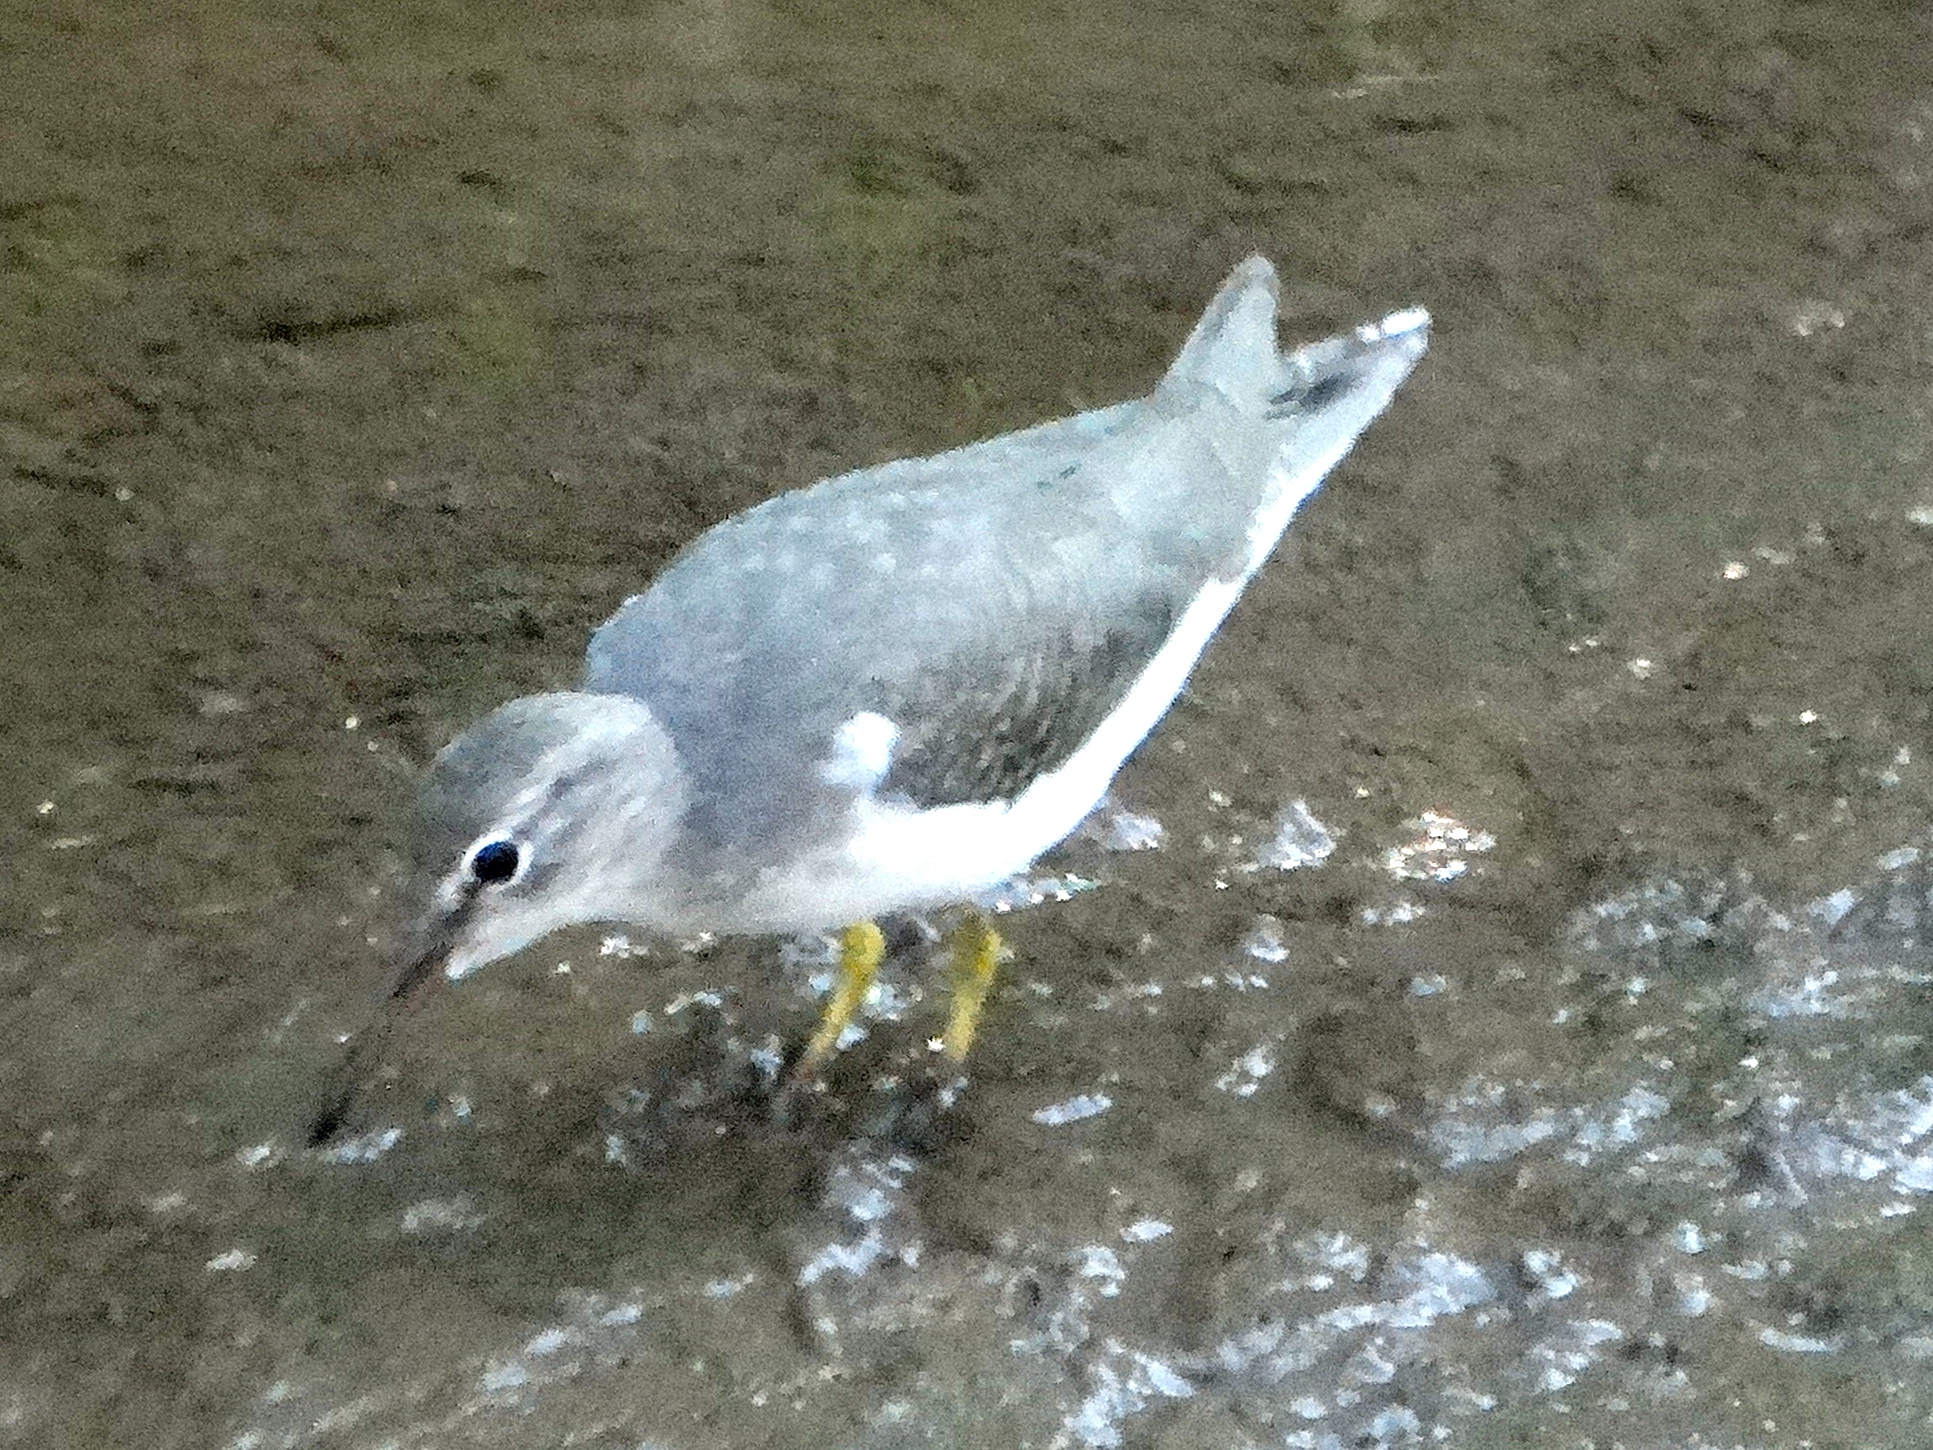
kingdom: Animalia
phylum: Chordata
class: Aves
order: Charadriiformes
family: Scolopacidae
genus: Actitis
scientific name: Actitis macularius
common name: Spotted sandpiper
